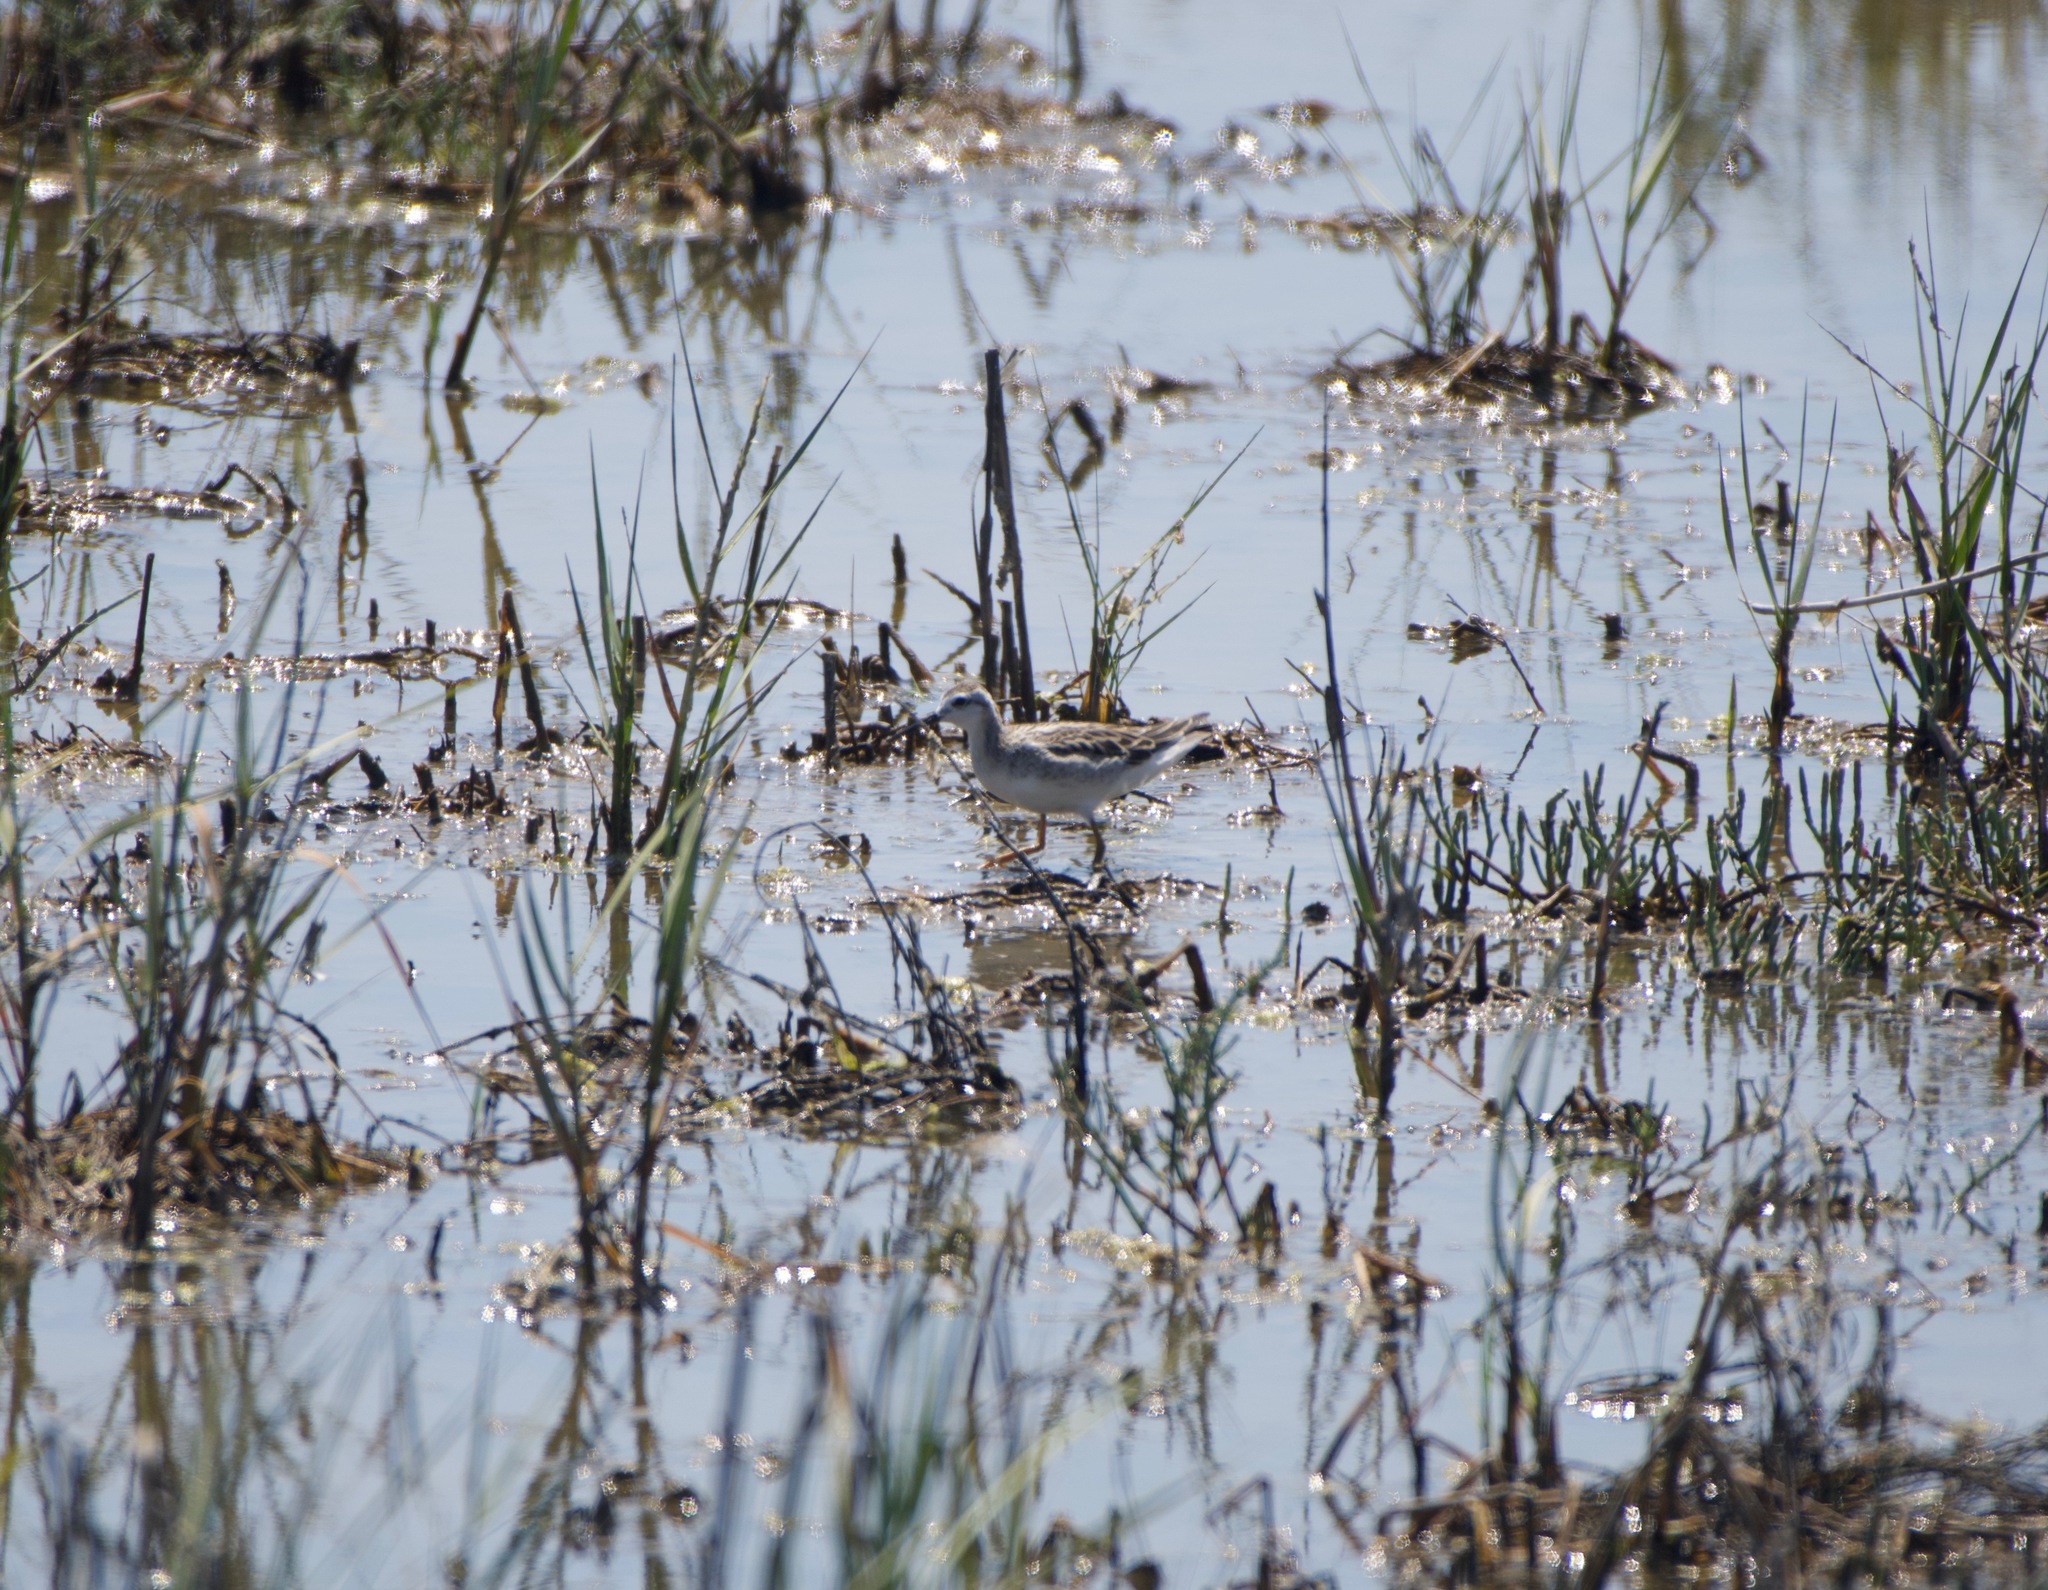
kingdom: Animalia
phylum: Chordata
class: Aves
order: Charadriiformes
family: Scolopacidae
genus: Phalaropus
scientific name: Phalaropus tricolor
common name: Wilson's phalarope
